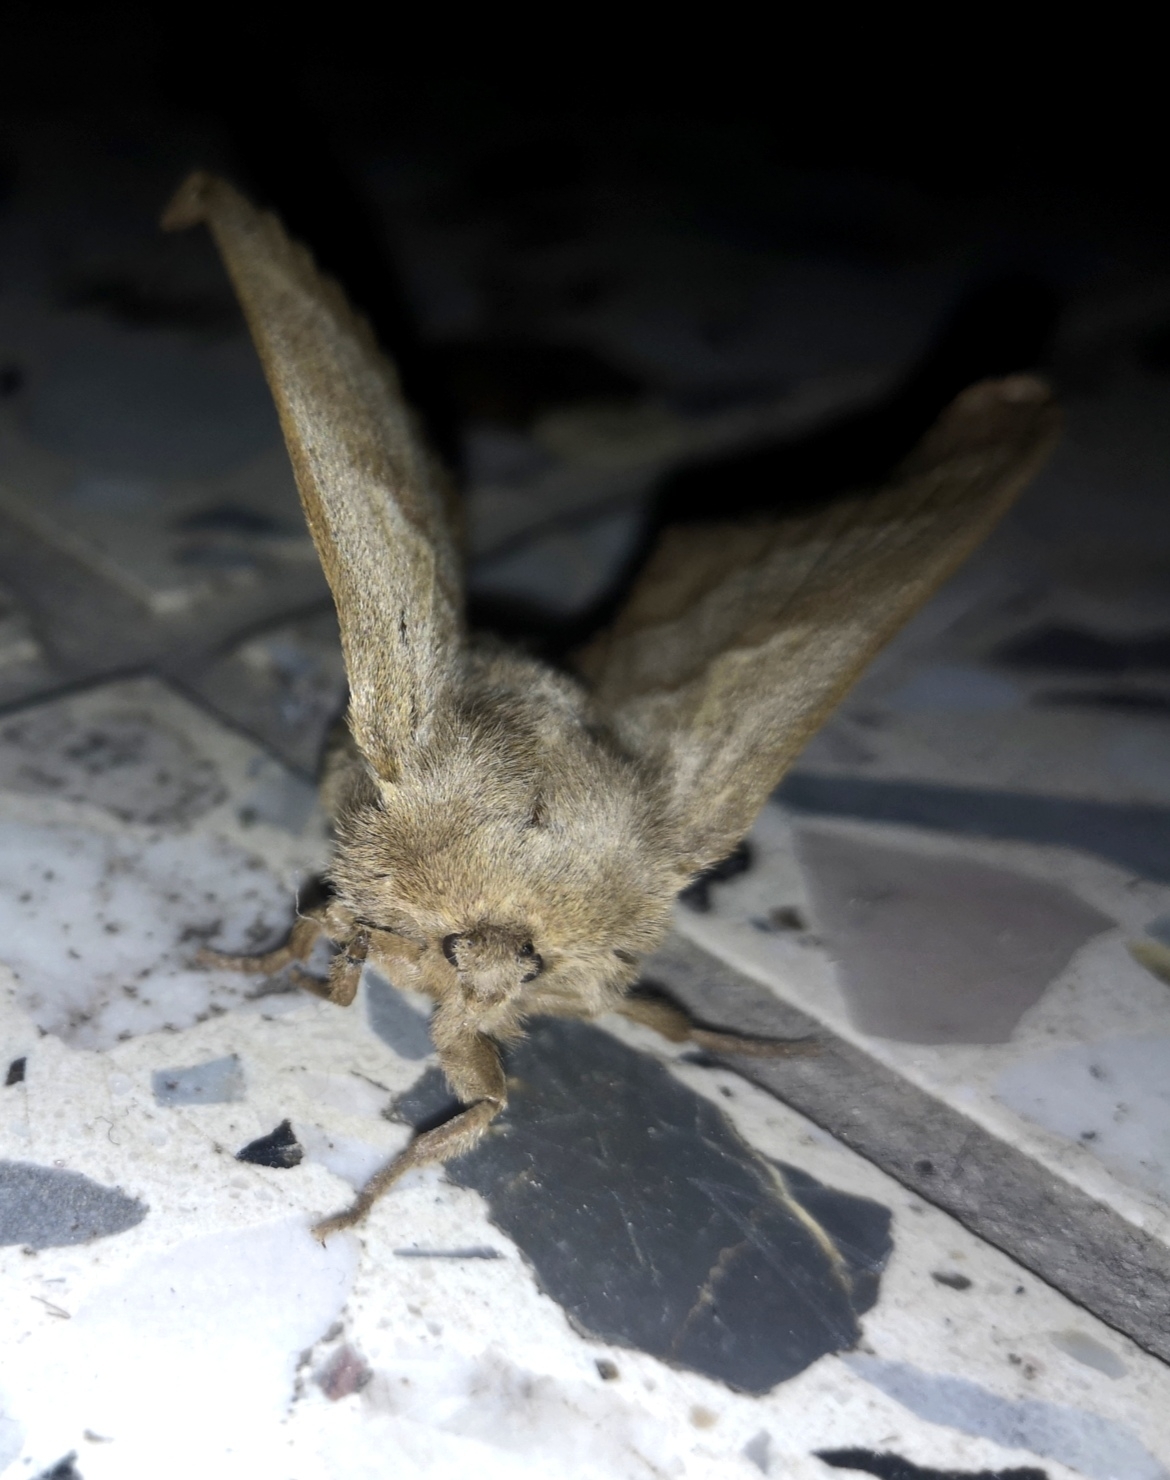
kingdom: Animalia
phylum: Arthropoda
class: Insecta
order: Lepidoptera
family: Lasiocampidae
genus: Macrothylacia
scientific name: Macrothylacia rubi
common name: Fox moth
